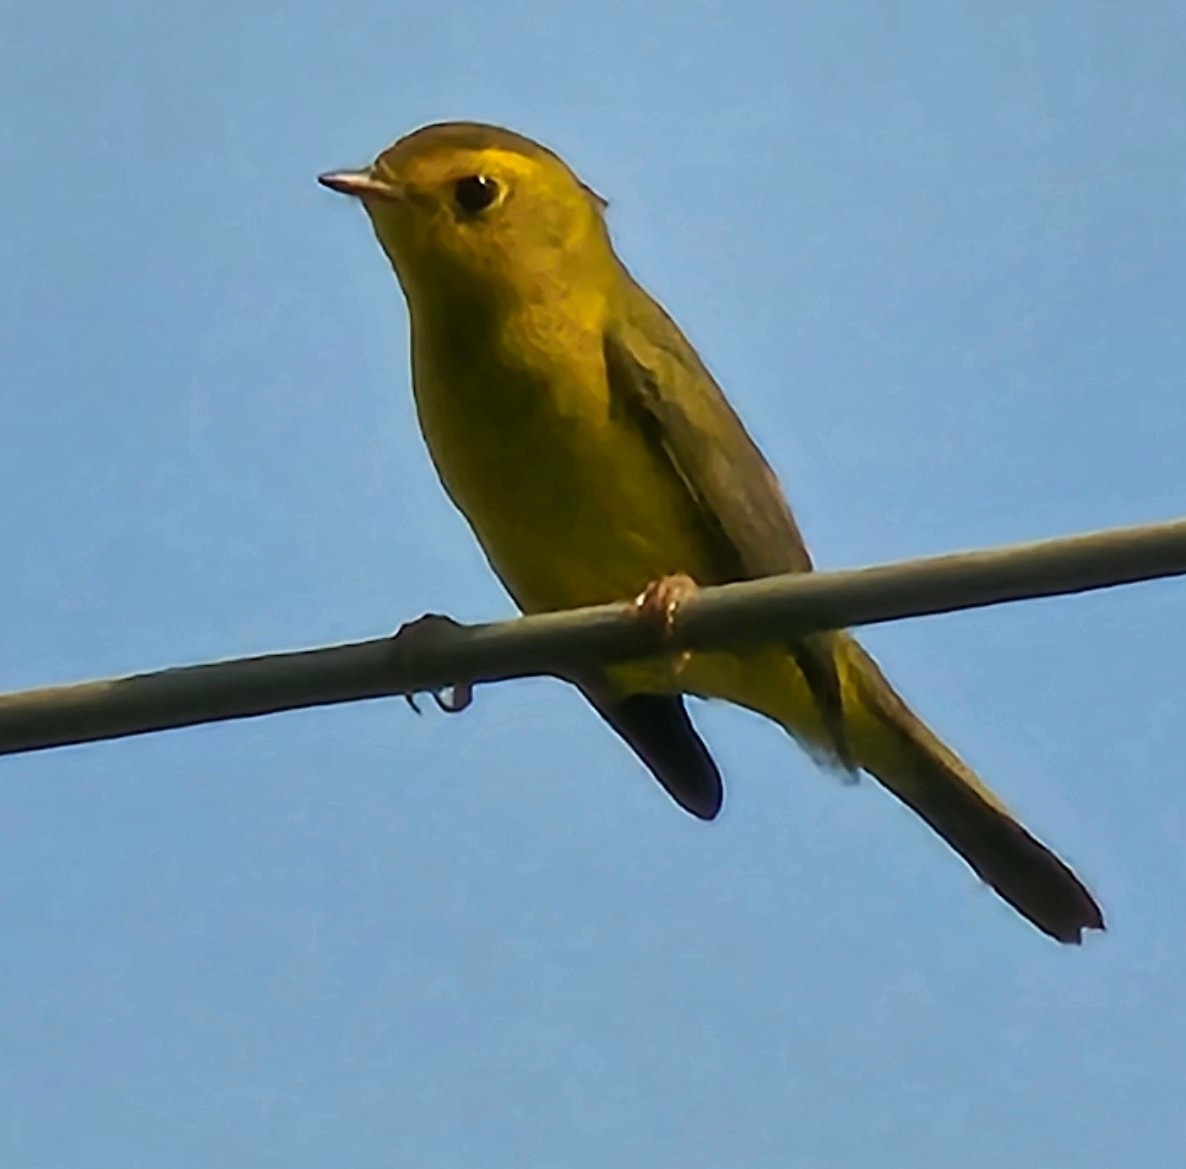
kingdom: Animalia
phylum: Chordata
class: Aves
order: Passeriformes
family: Parulidae
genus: Cardellina
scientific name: Cardellina pusilla
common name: Wilson's warbler
